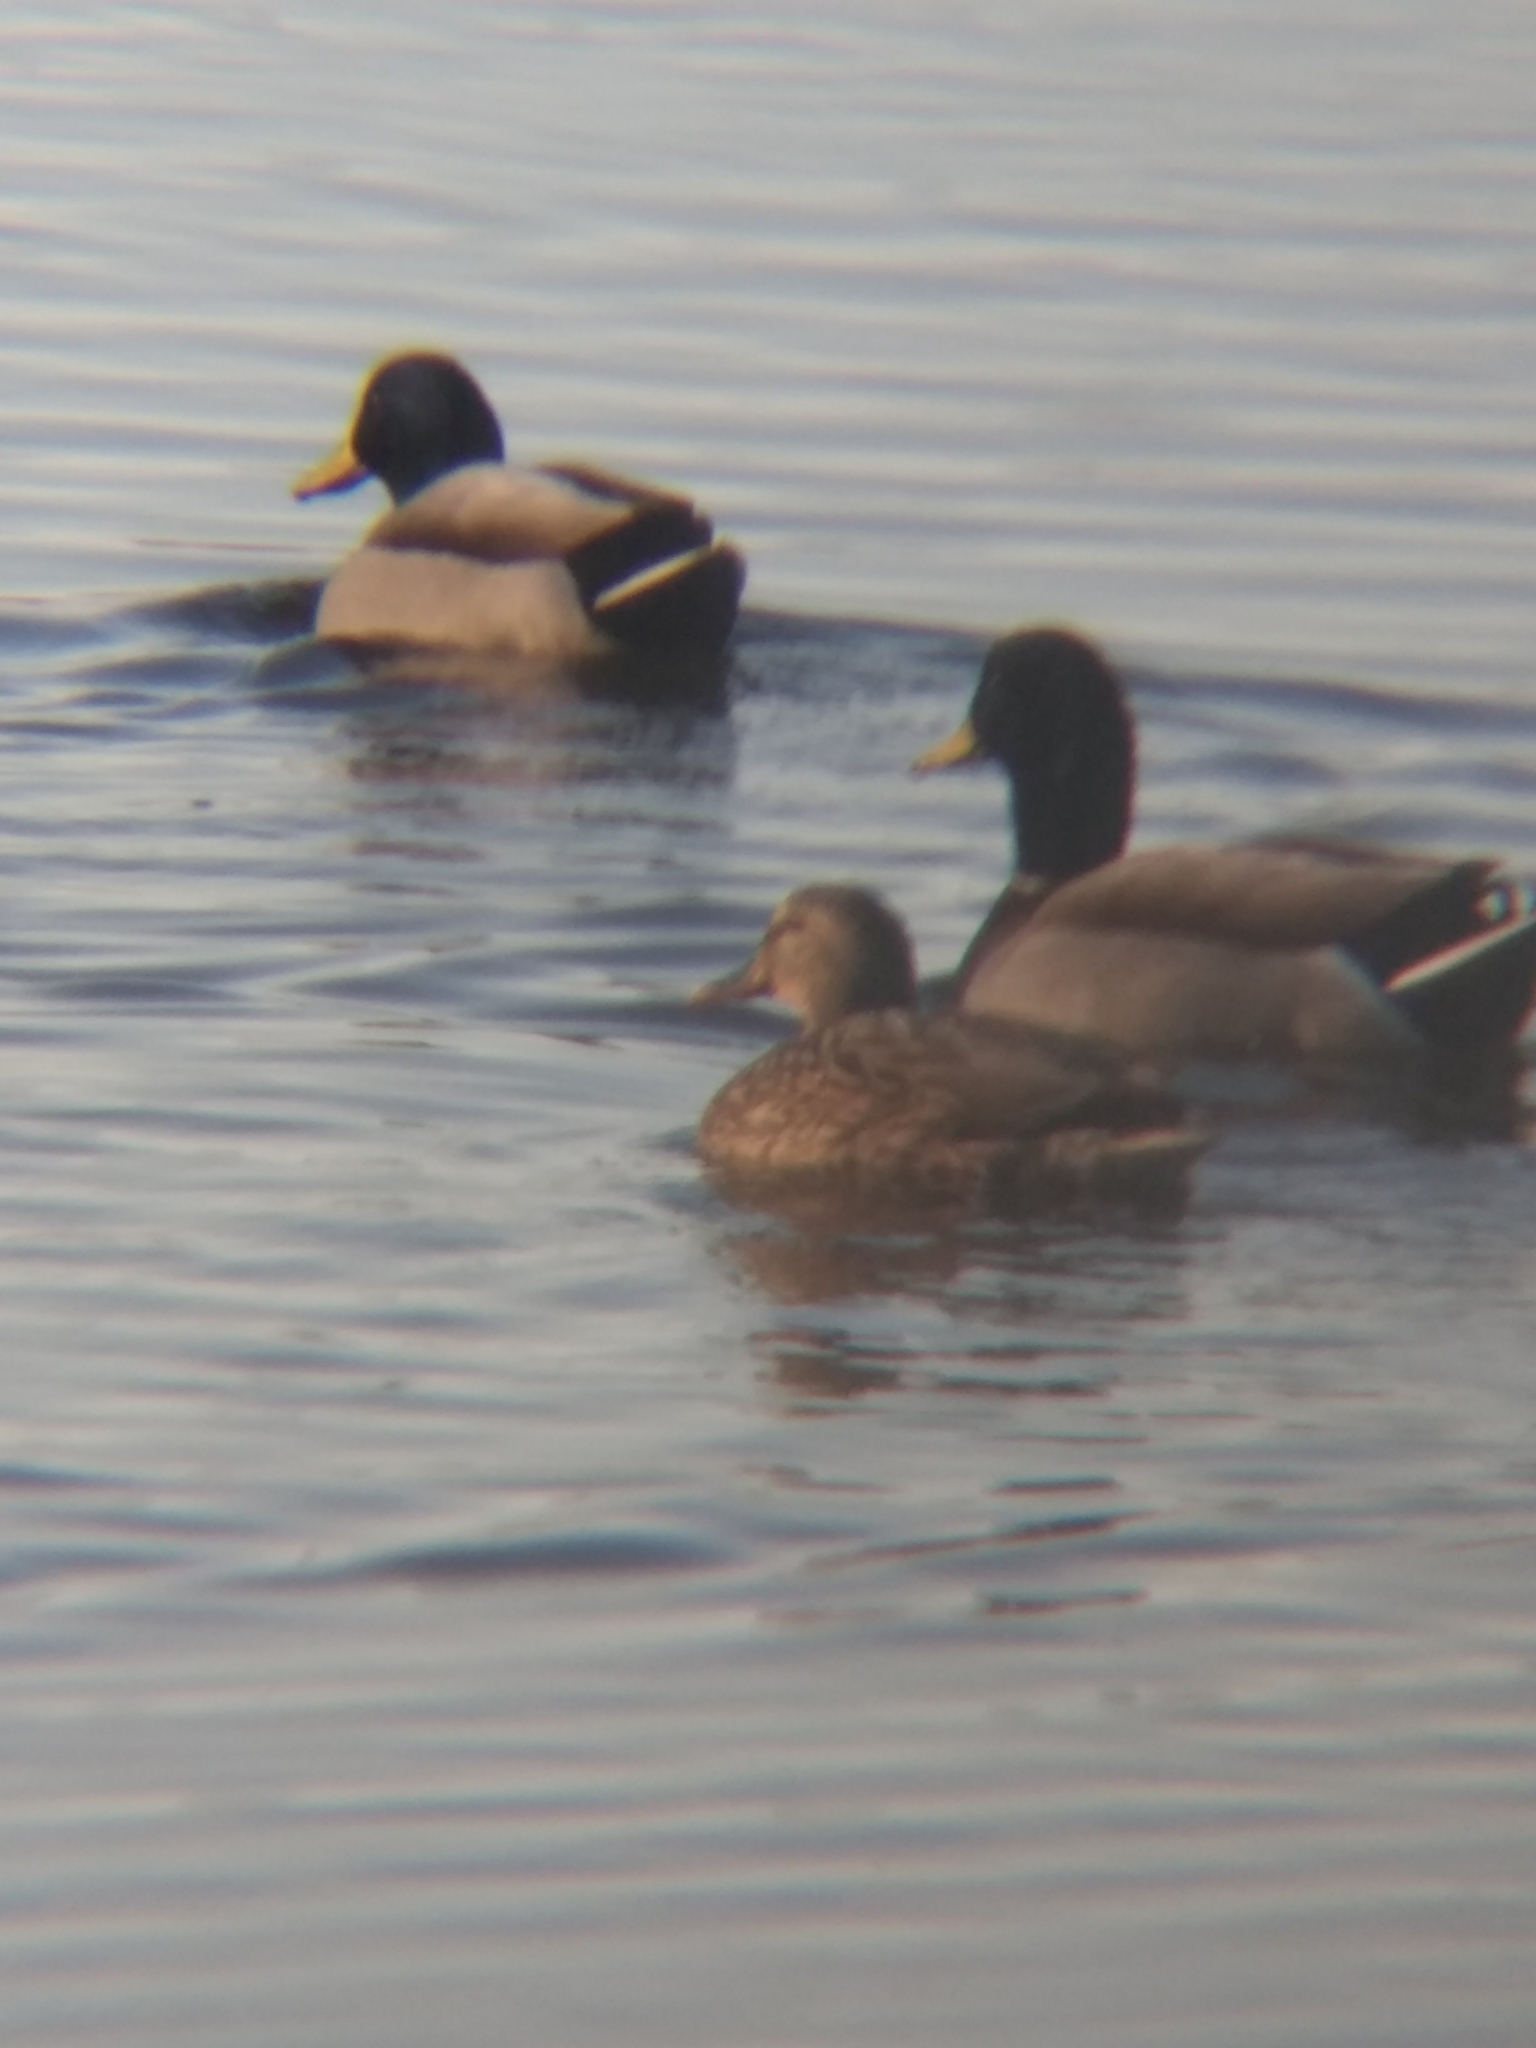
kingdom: Animalia
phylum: Chordata
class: Aves
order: Anseriformes
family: Anatidae
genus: Anas
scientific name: Anas platyrhynchos
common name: Mallard
